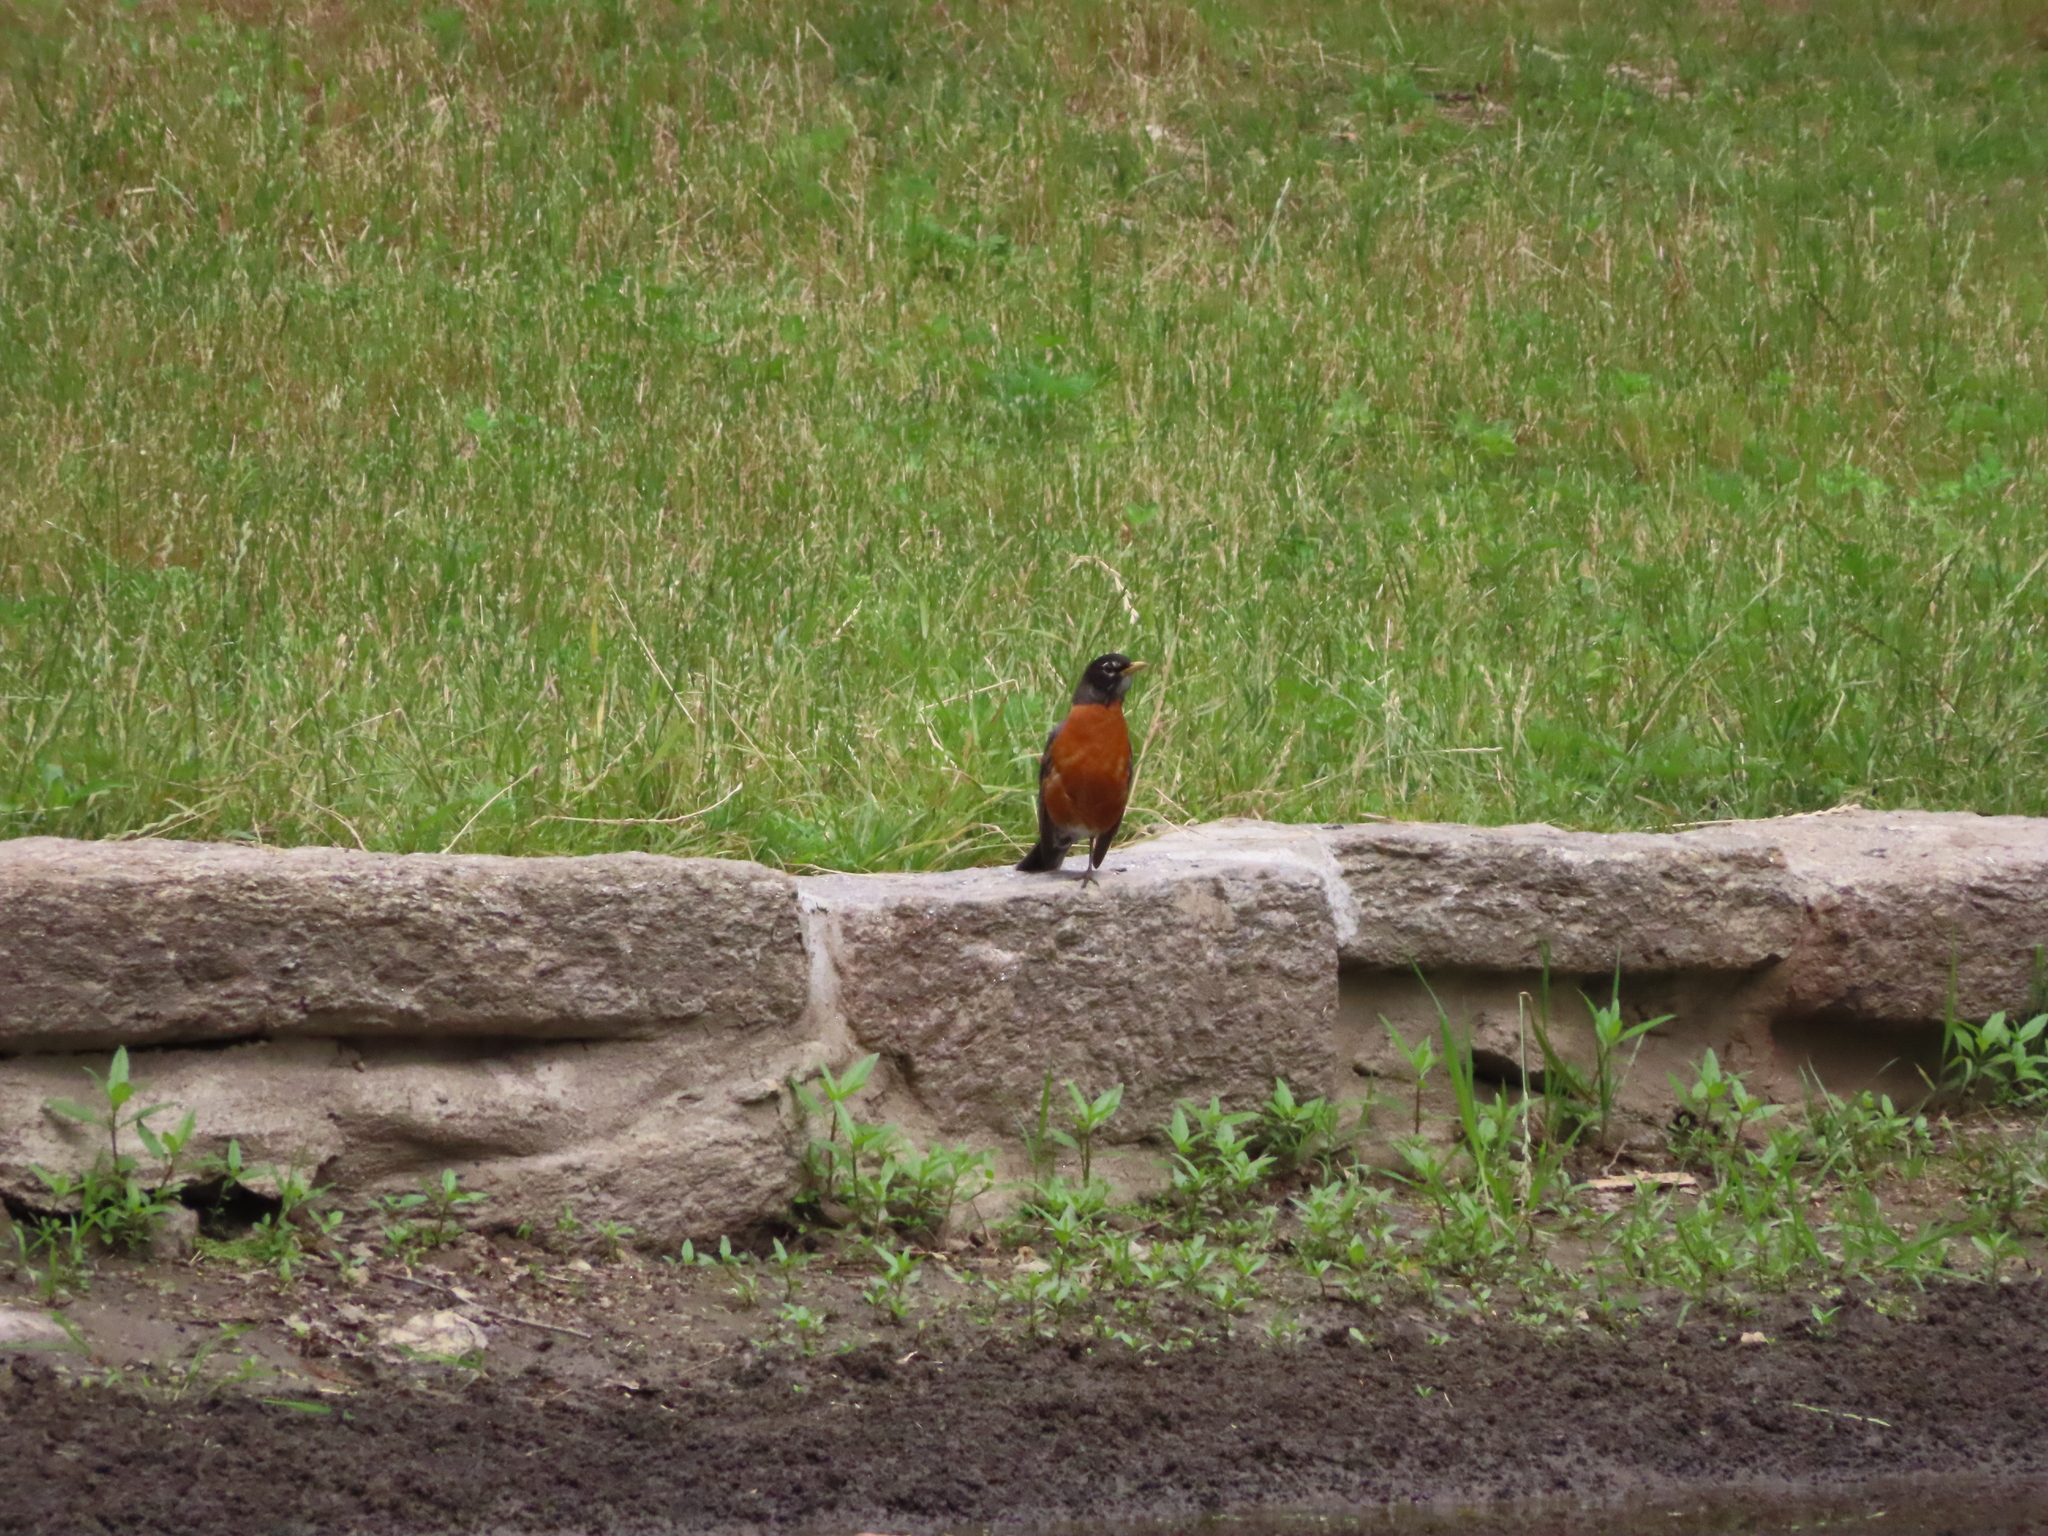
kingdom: Animalia
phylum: Chordata
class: Aves
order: Passeriformes
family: Turdidae
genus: Turdus
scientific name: Turdus migratorius
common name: American robin
